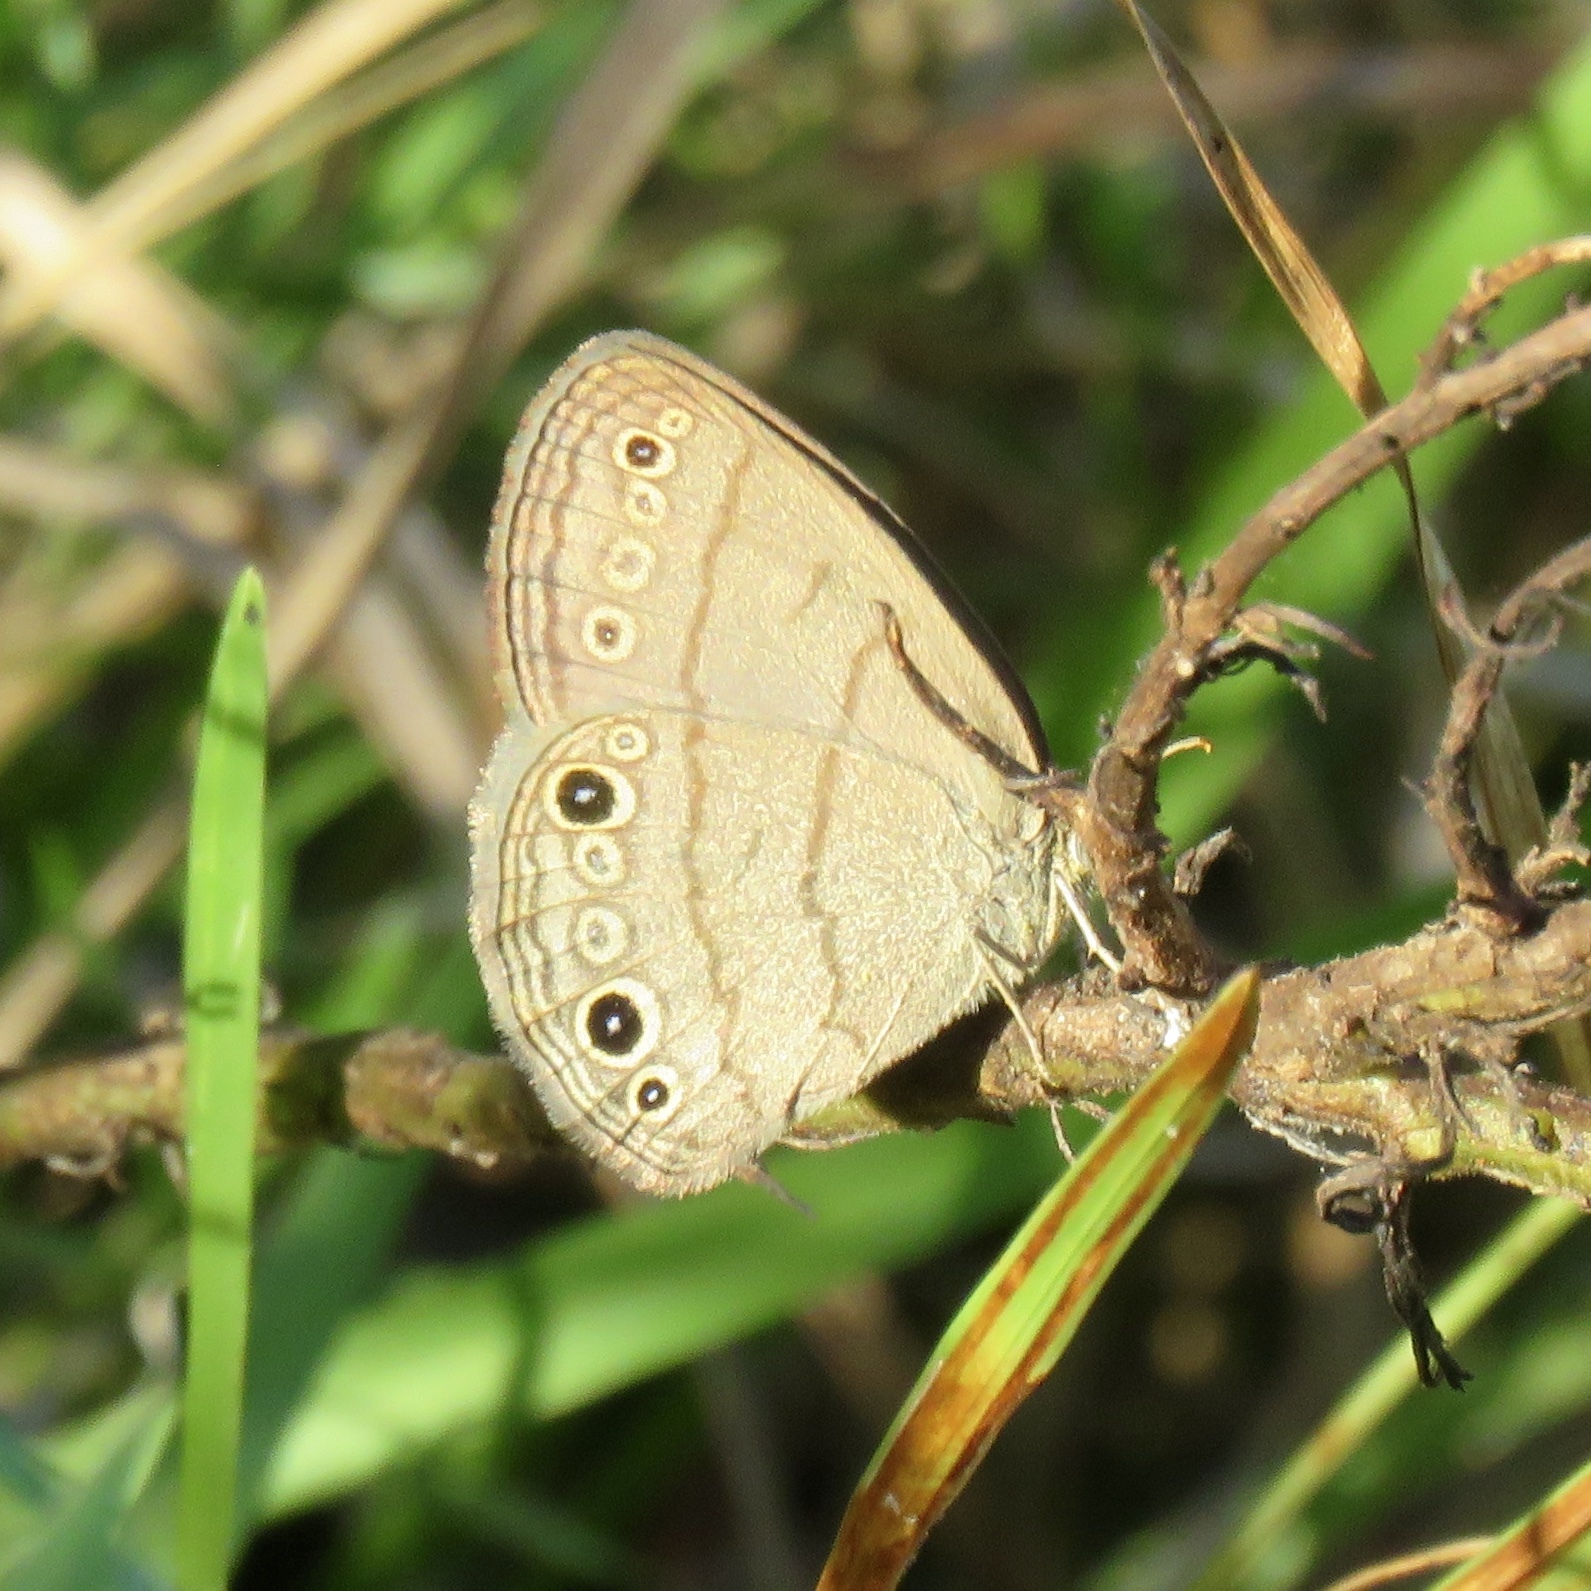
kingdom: Animalia
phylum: Arthropoda
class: Insecta
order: Lepidoptera
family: Nymphalidae
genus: Hermeuptychia
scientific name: Hermeuptychia hermes
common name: Hermes satyr
